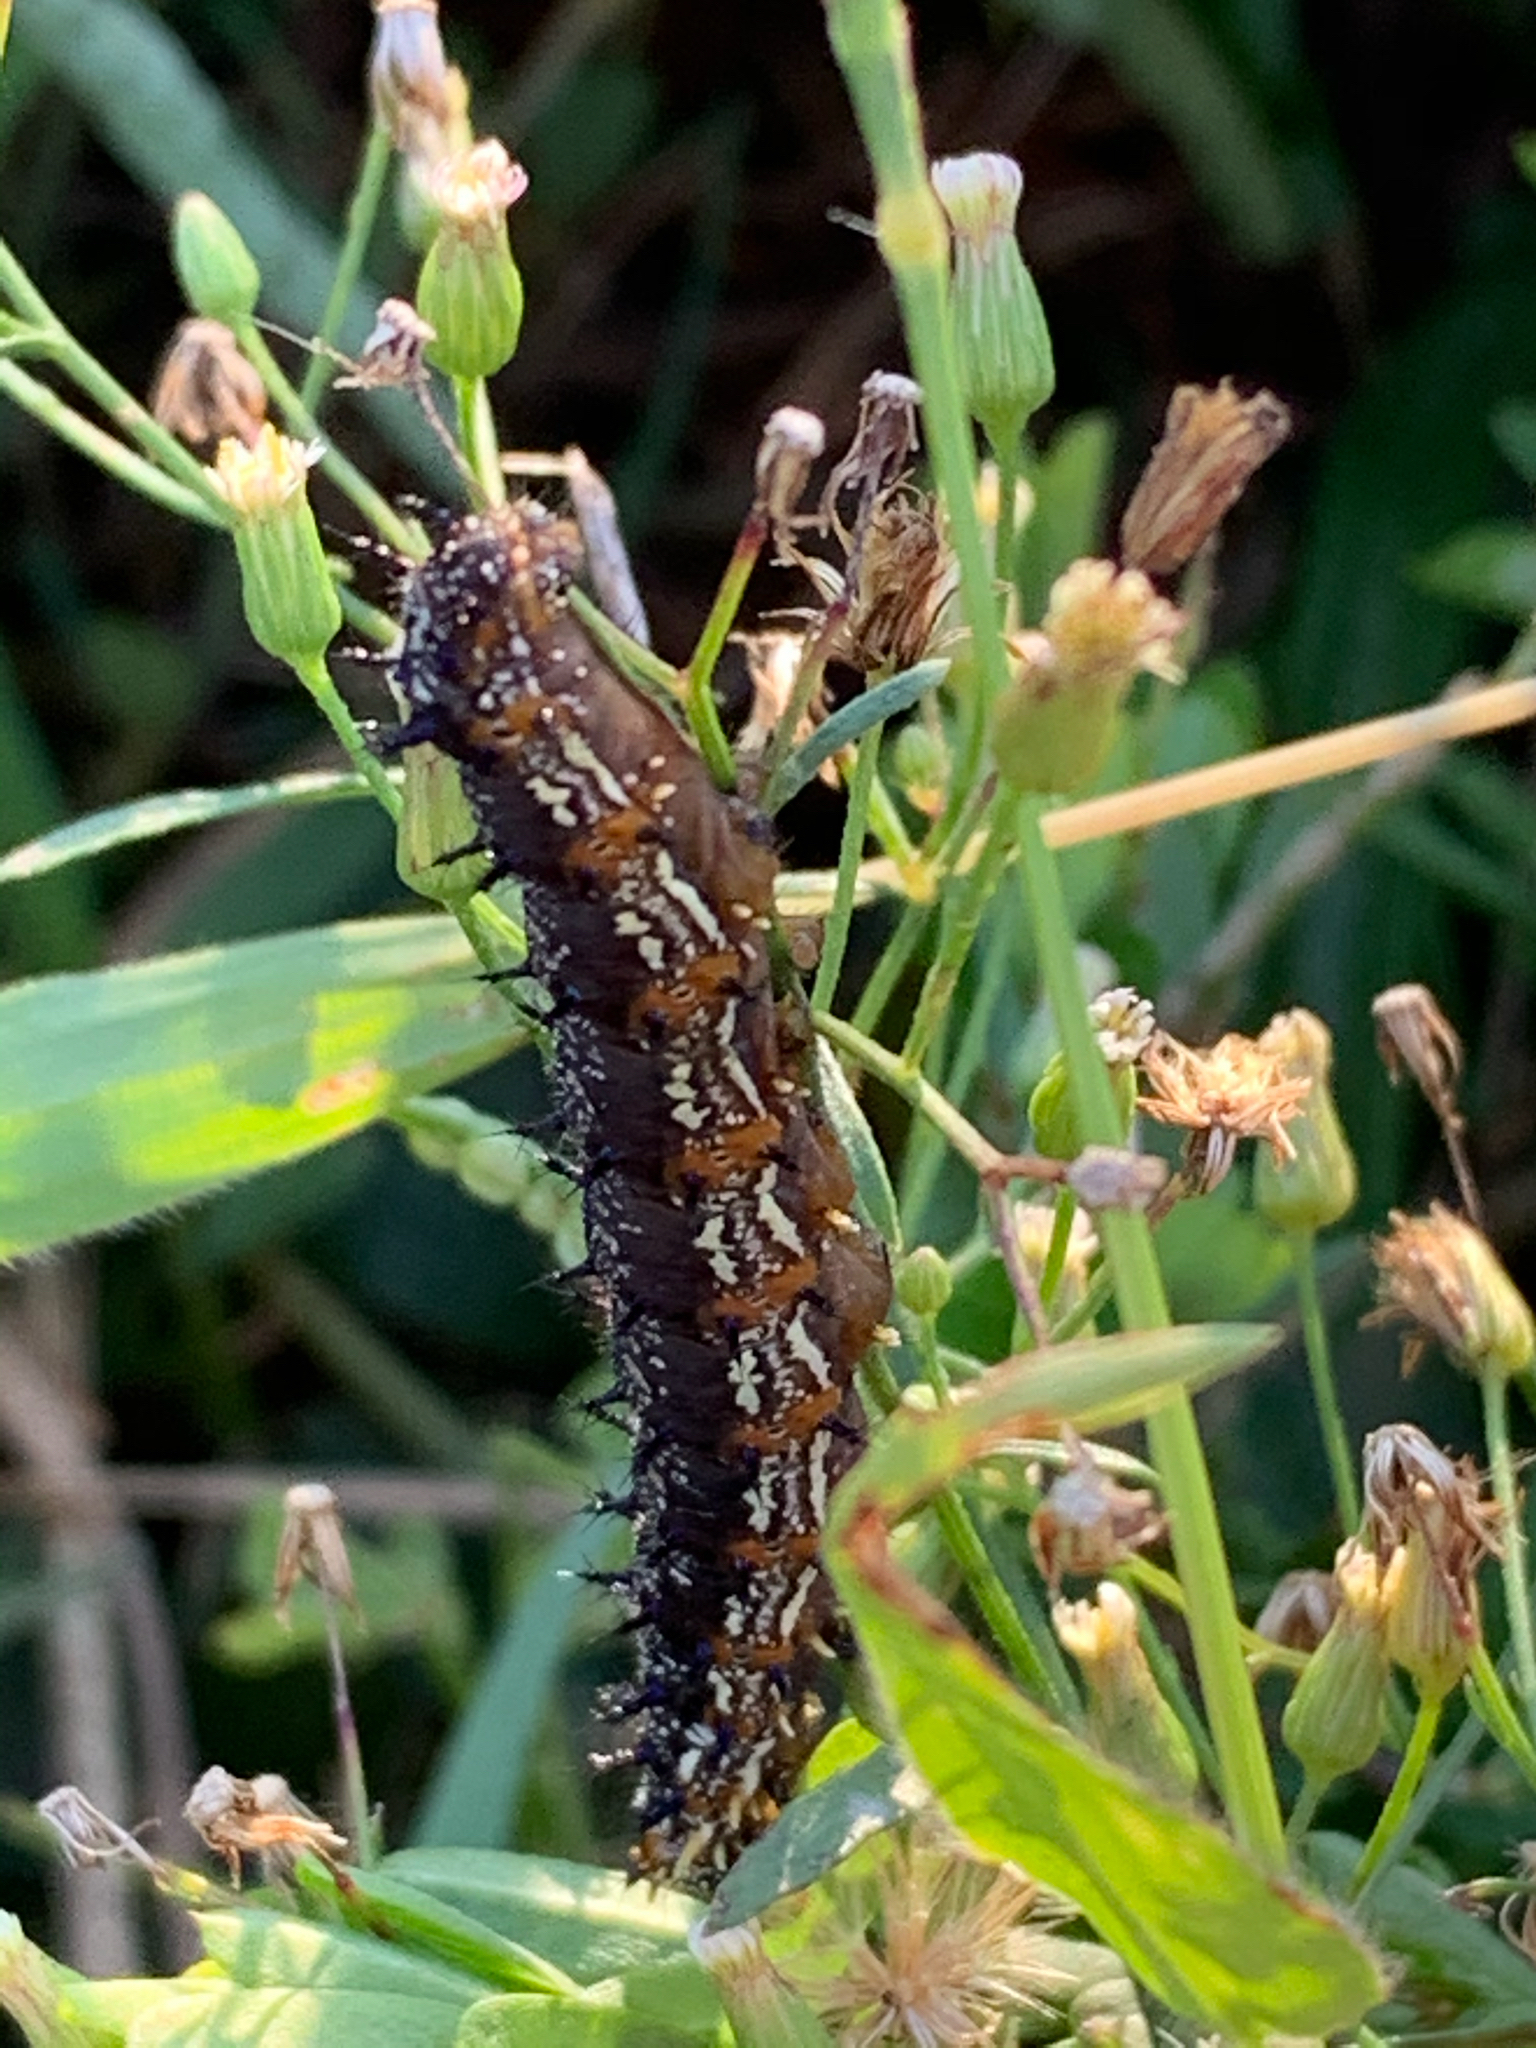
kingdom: Animalia
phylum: Arthropoda
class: Insecta
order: Lepidoptera
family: Nymphalidae
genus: Junonia
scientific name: Junonia coenia
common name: Common buckeye
